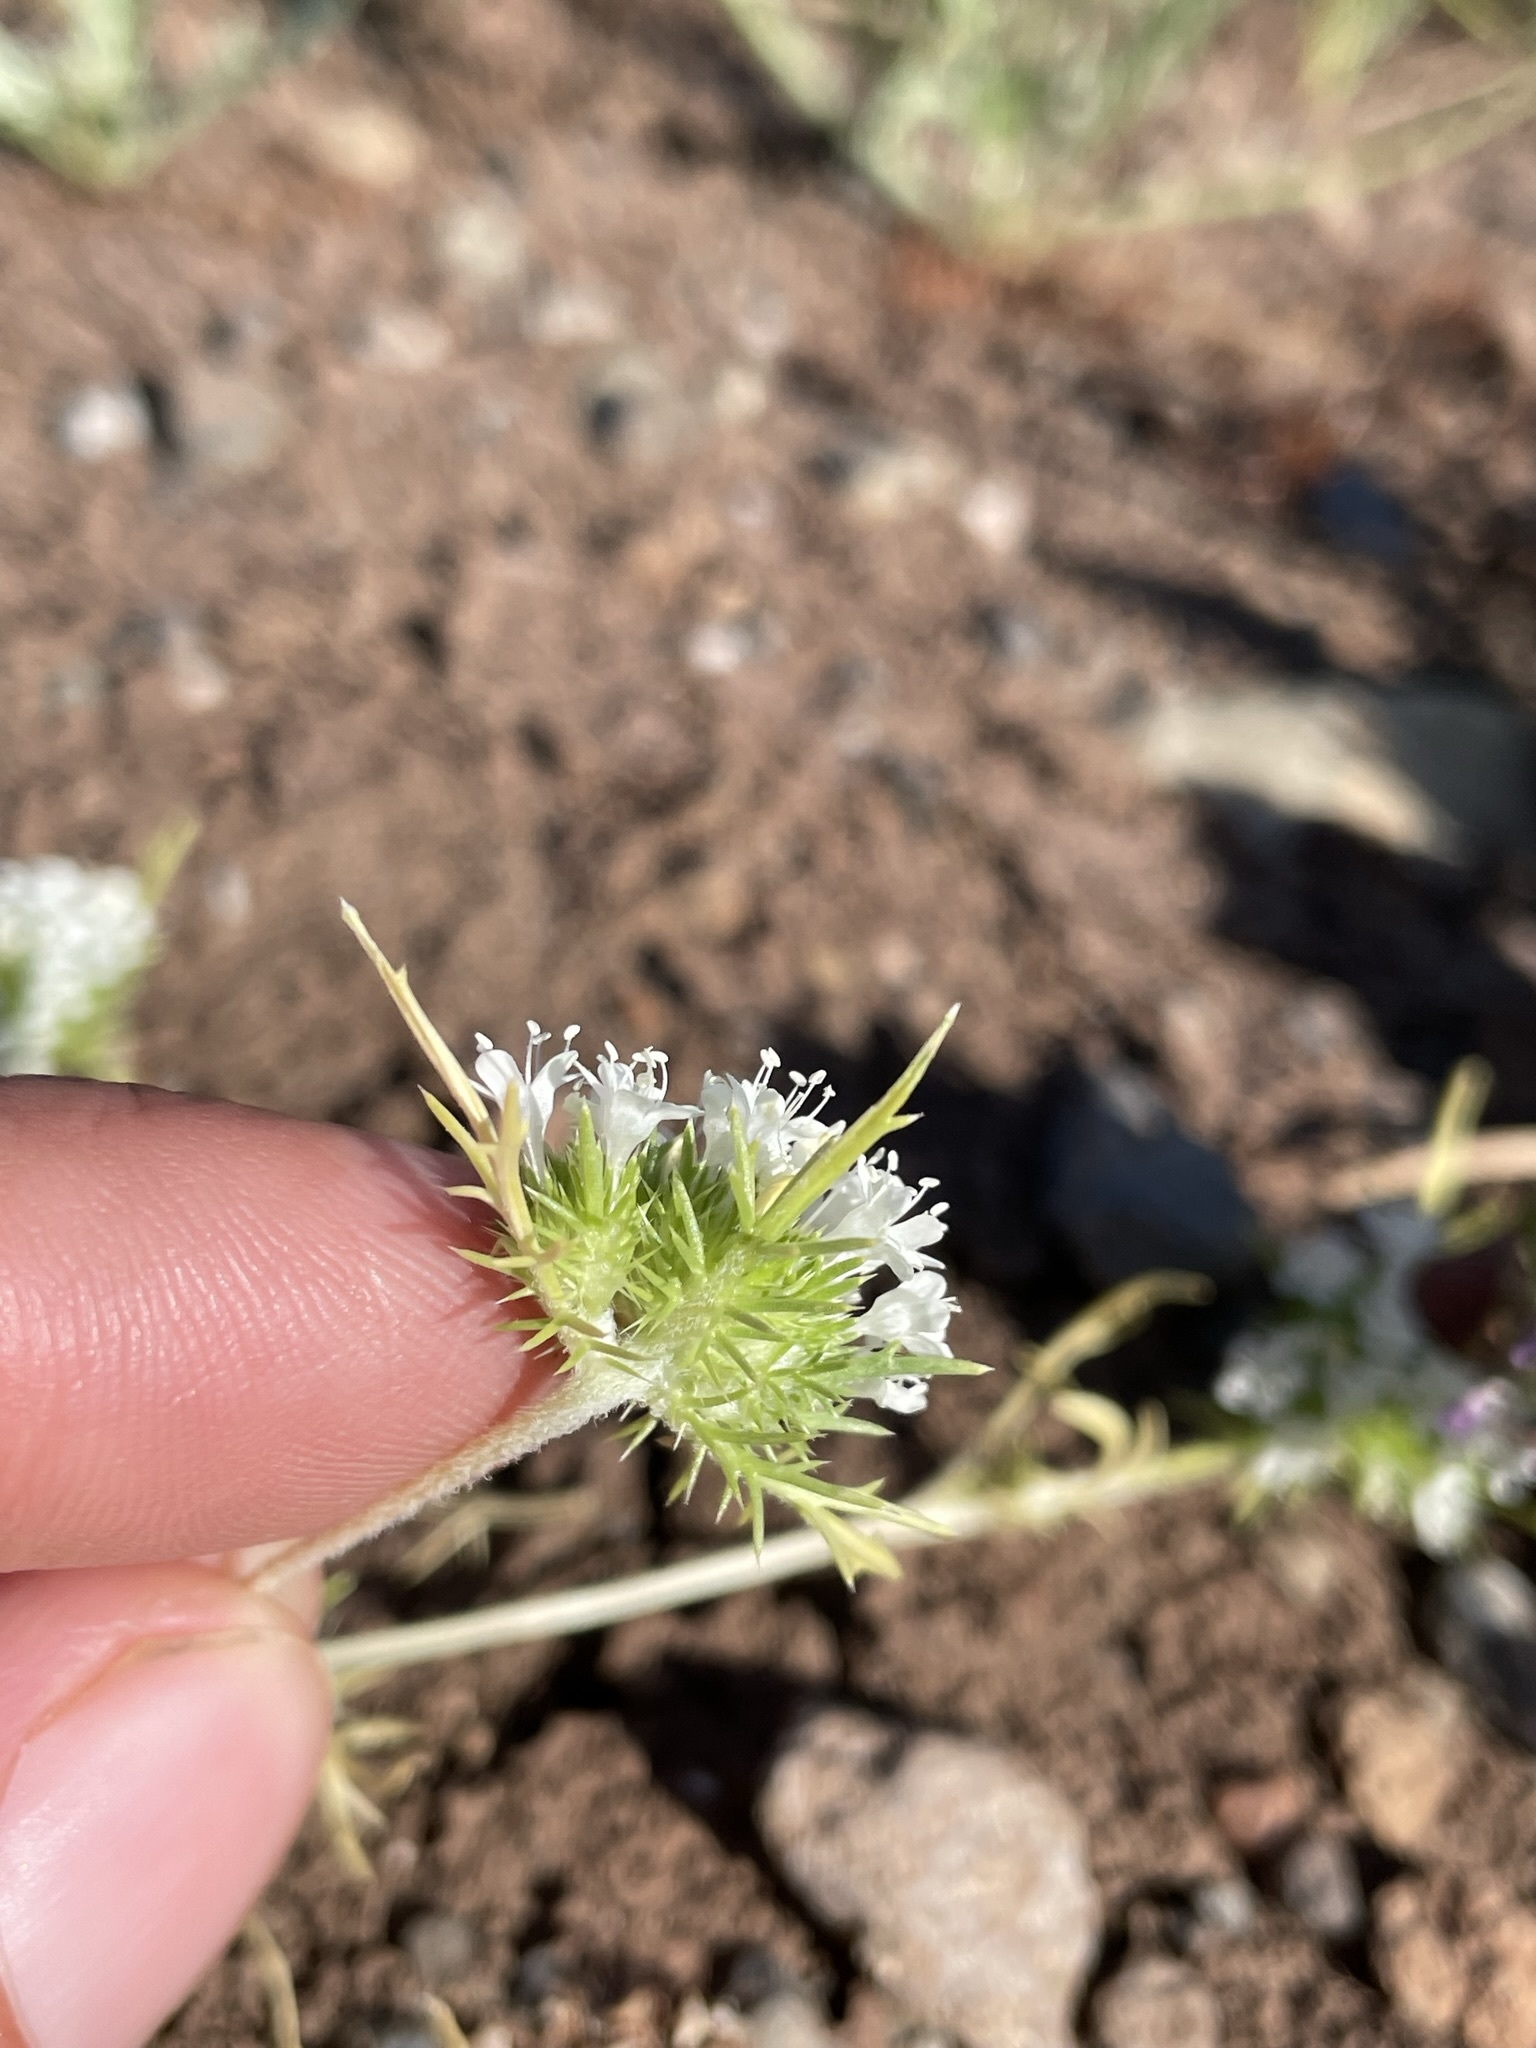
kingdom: Plantae
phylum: Tracheophyta
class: Magnoliopsida
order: Ericales
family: Polemoniaceae
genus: Navarretia
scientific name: Navarretia leucocephala
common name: White-flowered navarretia
